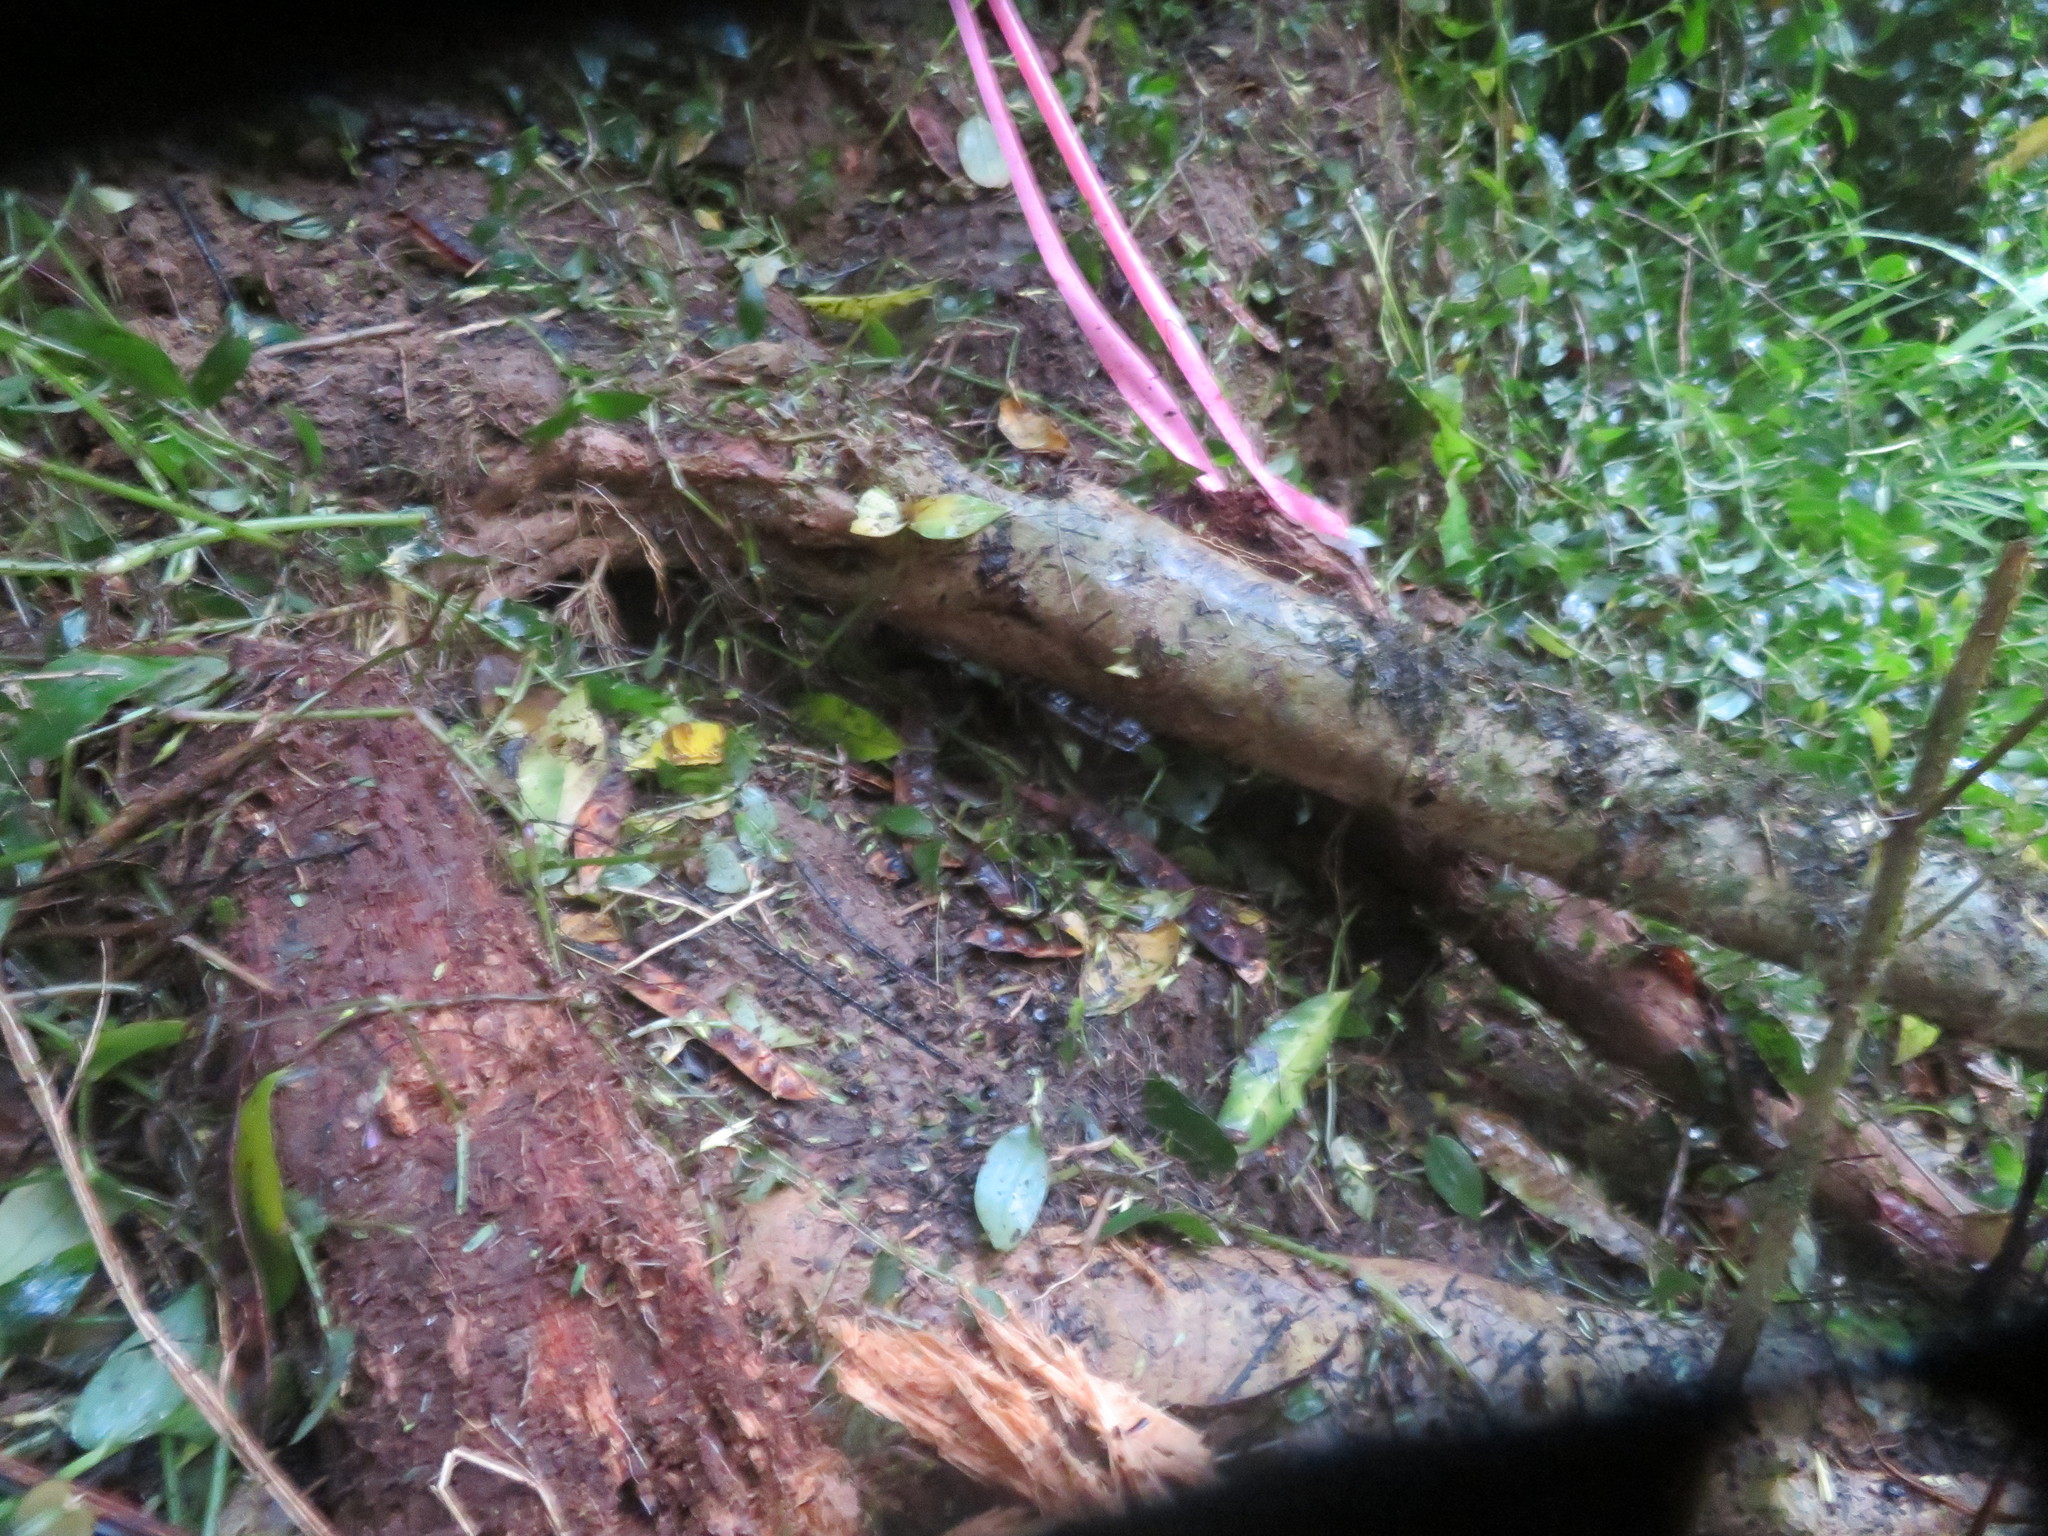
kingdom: Plantae
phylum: Tracheophyta
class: Liliopsida
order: Commelinales
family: Commelinaceae
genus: Tradescantia
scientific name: Tradescantia fluminensis
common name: Wandering-jew
